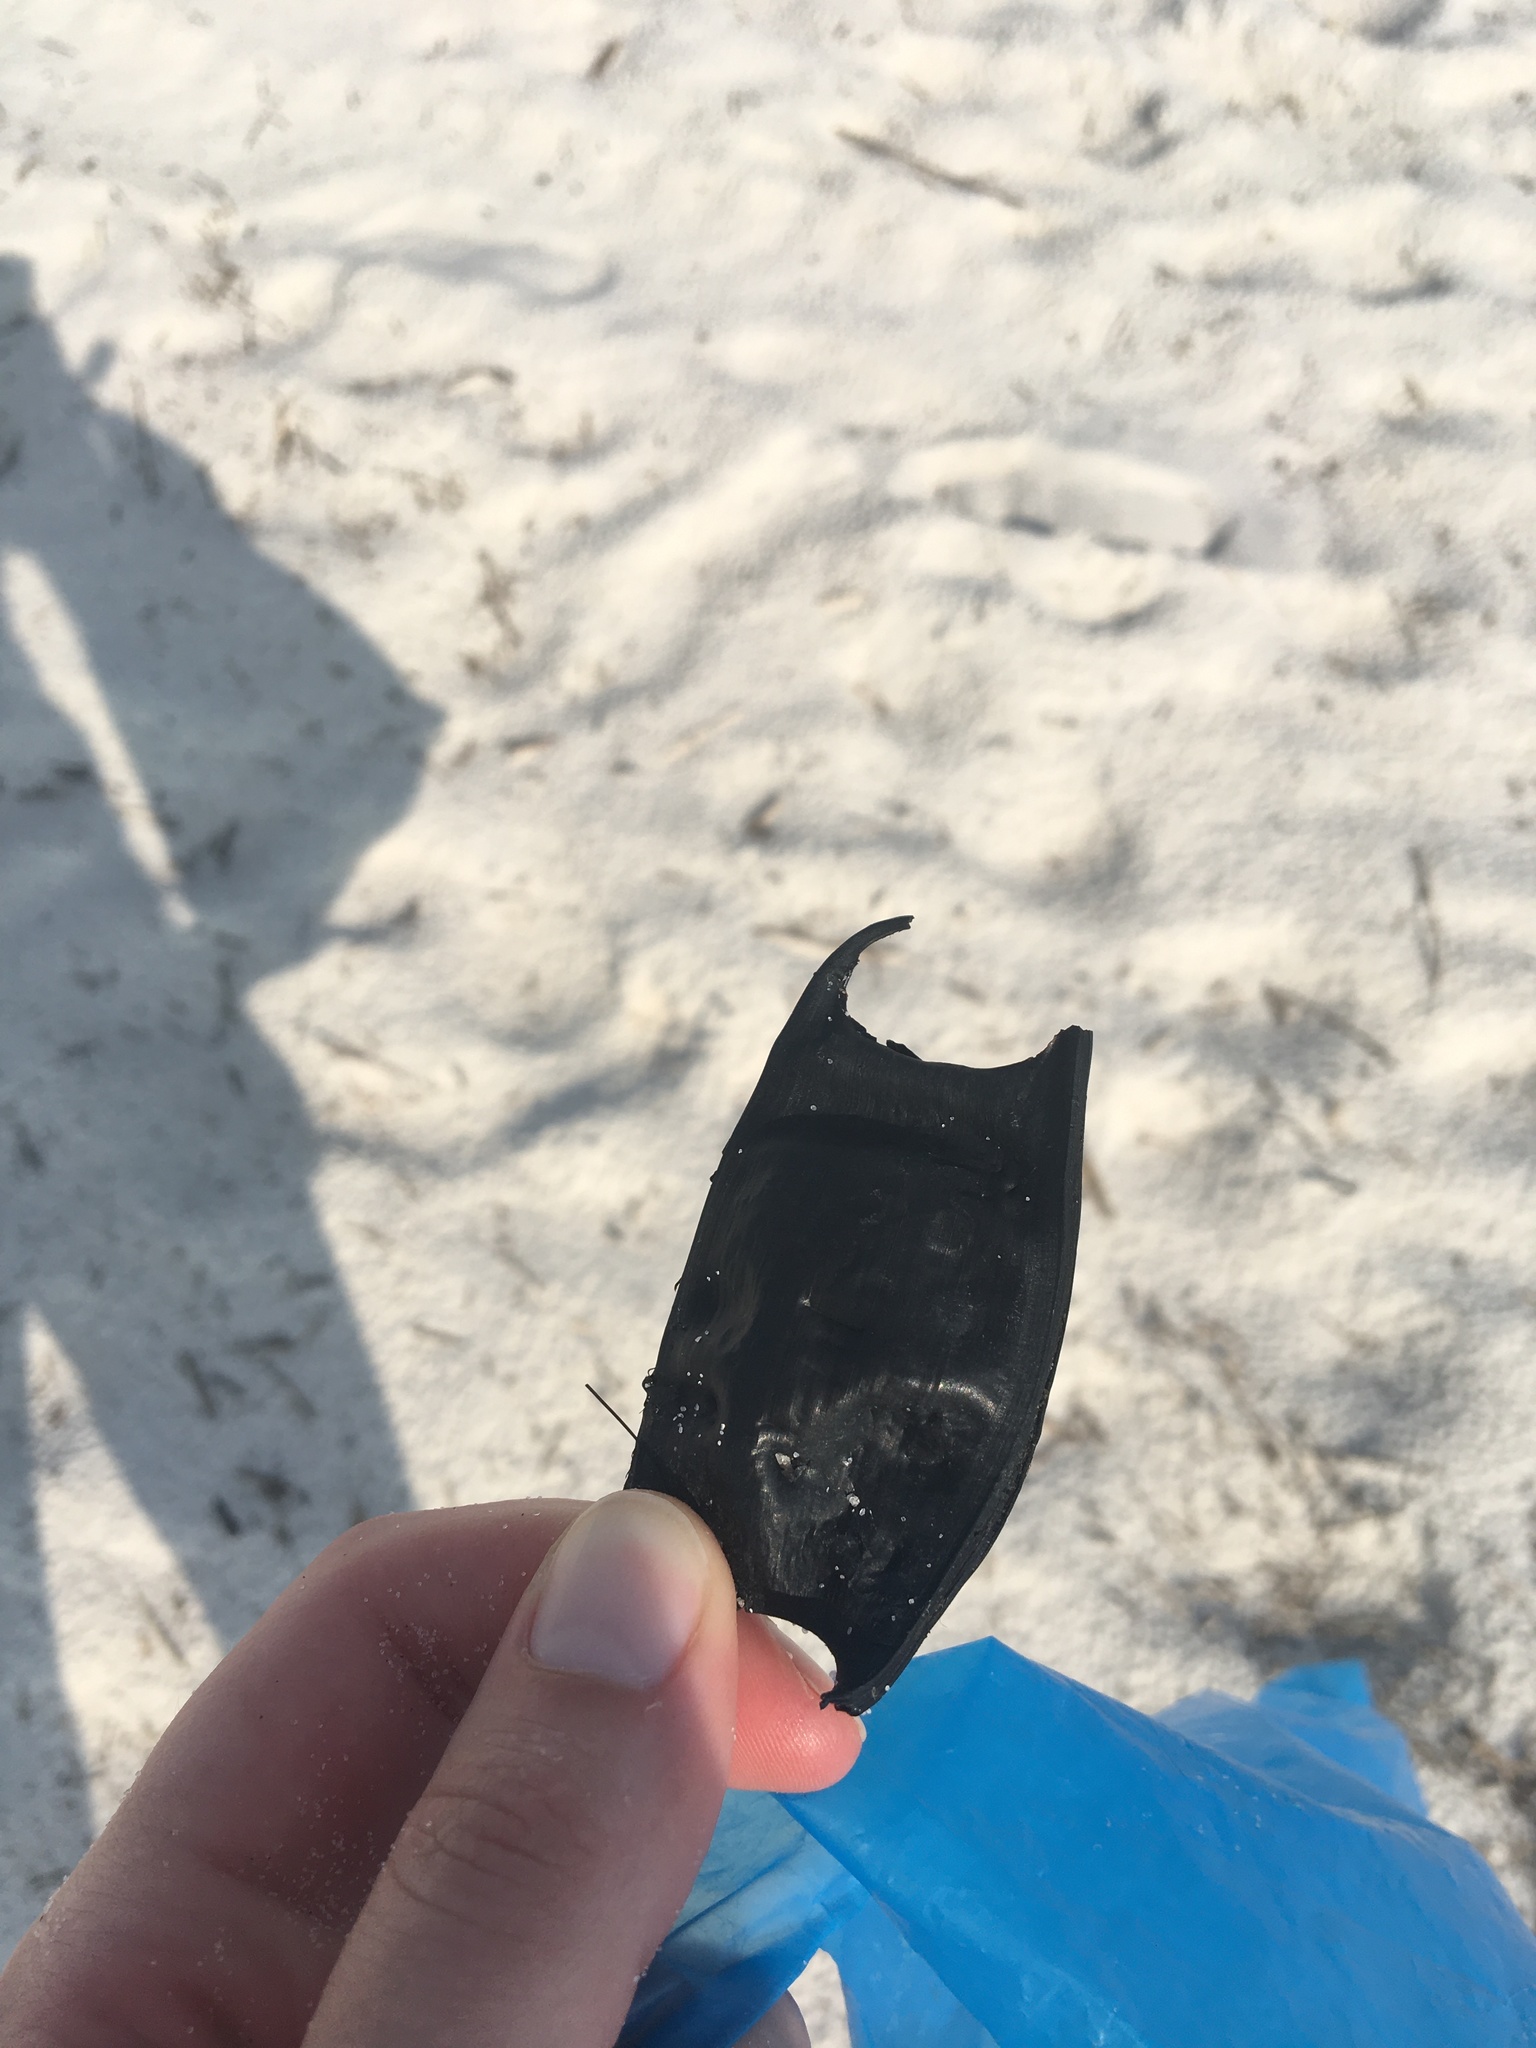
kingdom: Animalia
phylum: Chordata
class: Elasmobranchii
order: Rajiformes
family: Rajidae
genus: Leucoraja
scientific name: Leucoraja lentiginosa
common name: Freckled skate
